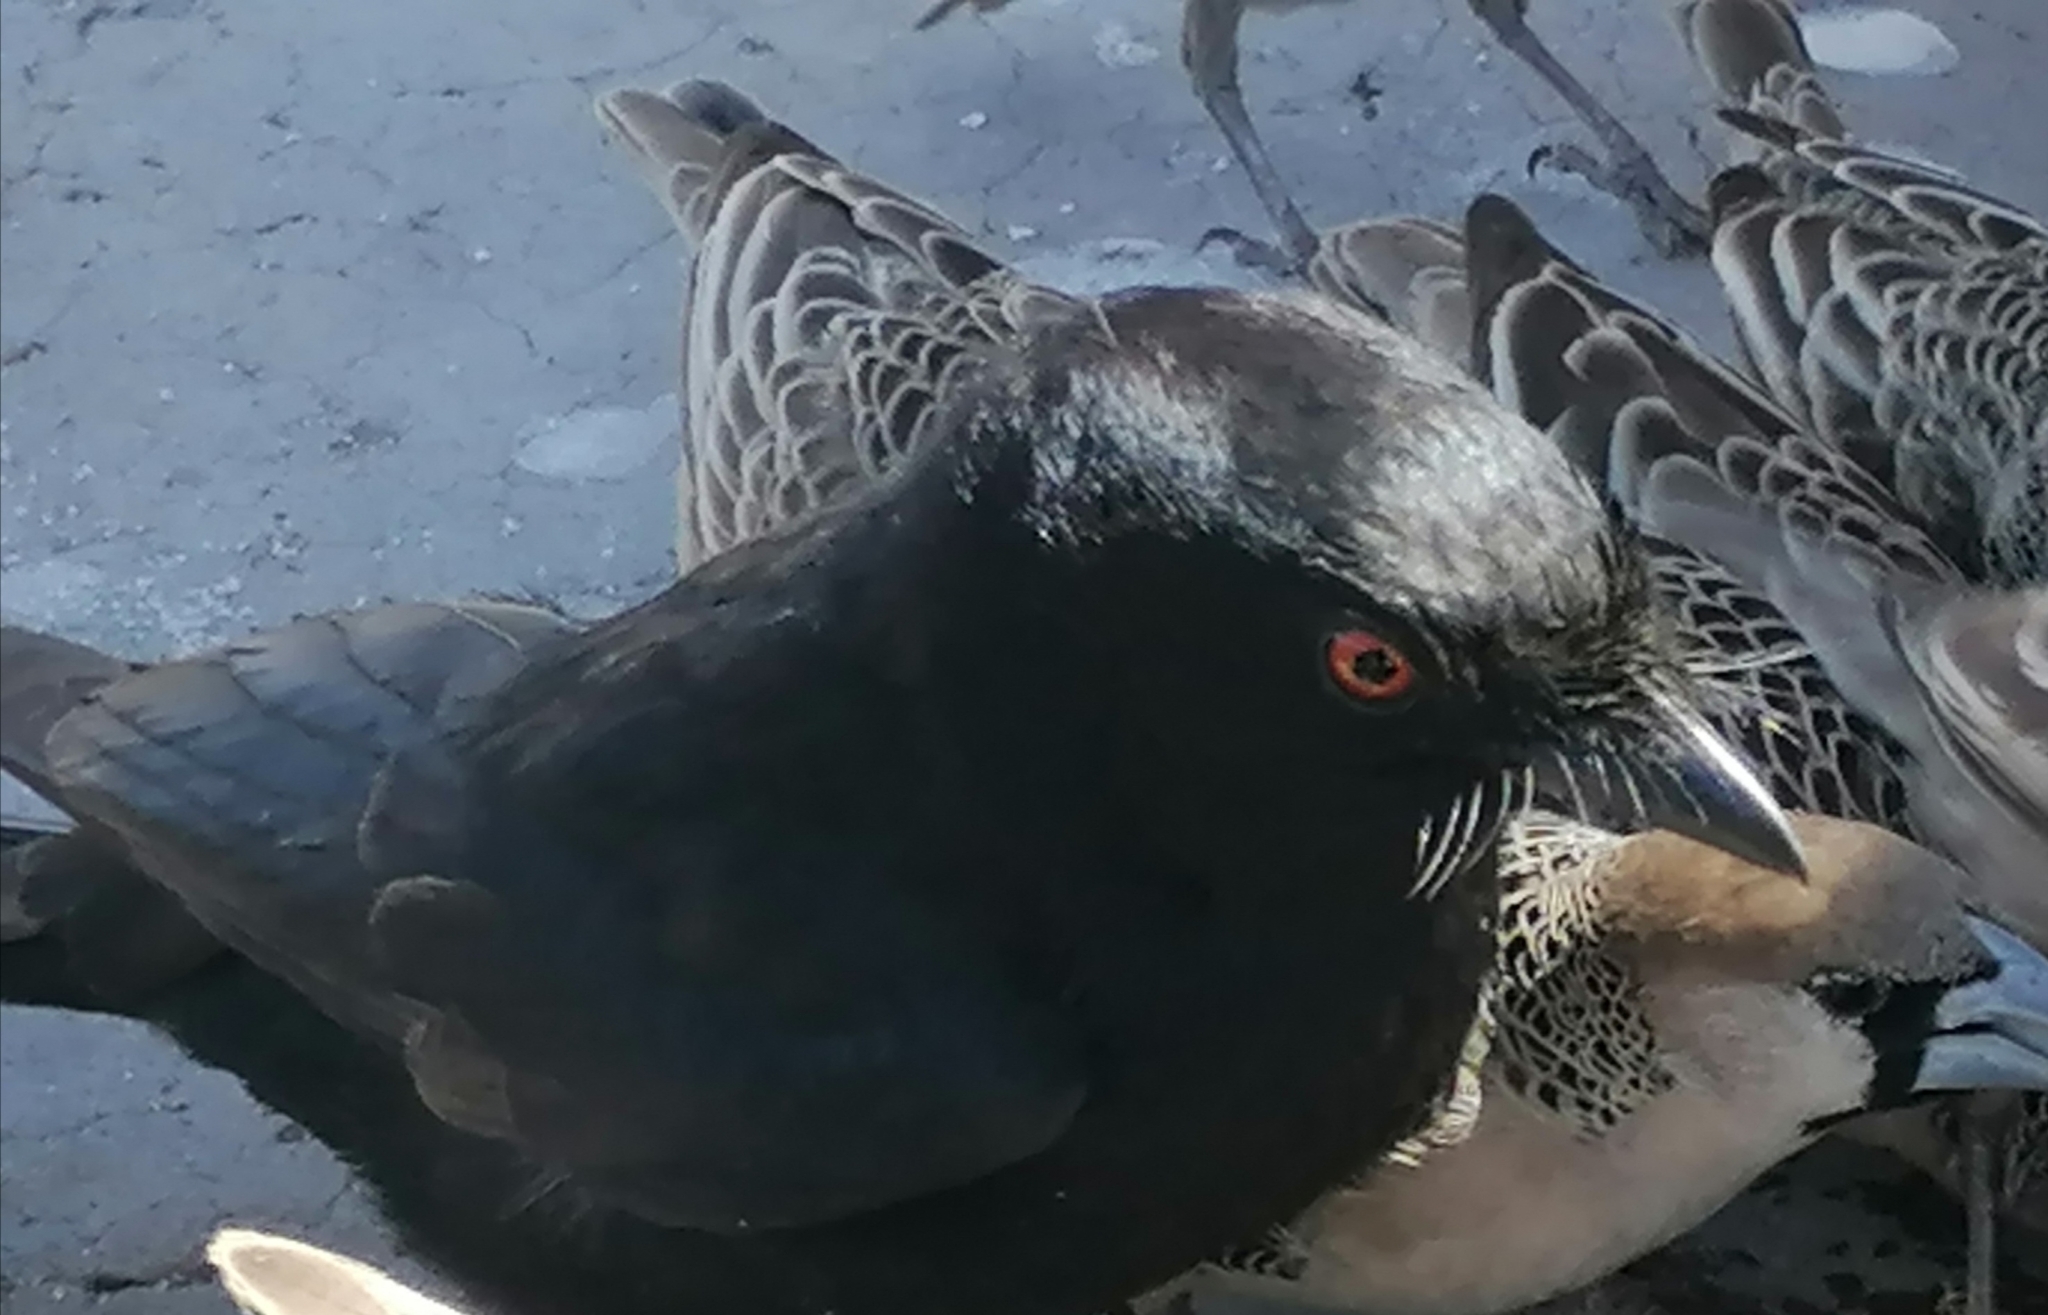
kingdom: Animalia
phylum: Chordata
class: Aves
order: Passeriformes
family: Dicruridae
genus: Dicrurus
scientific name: Dicrurus adsimilis
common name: Fork-tailed drongo
